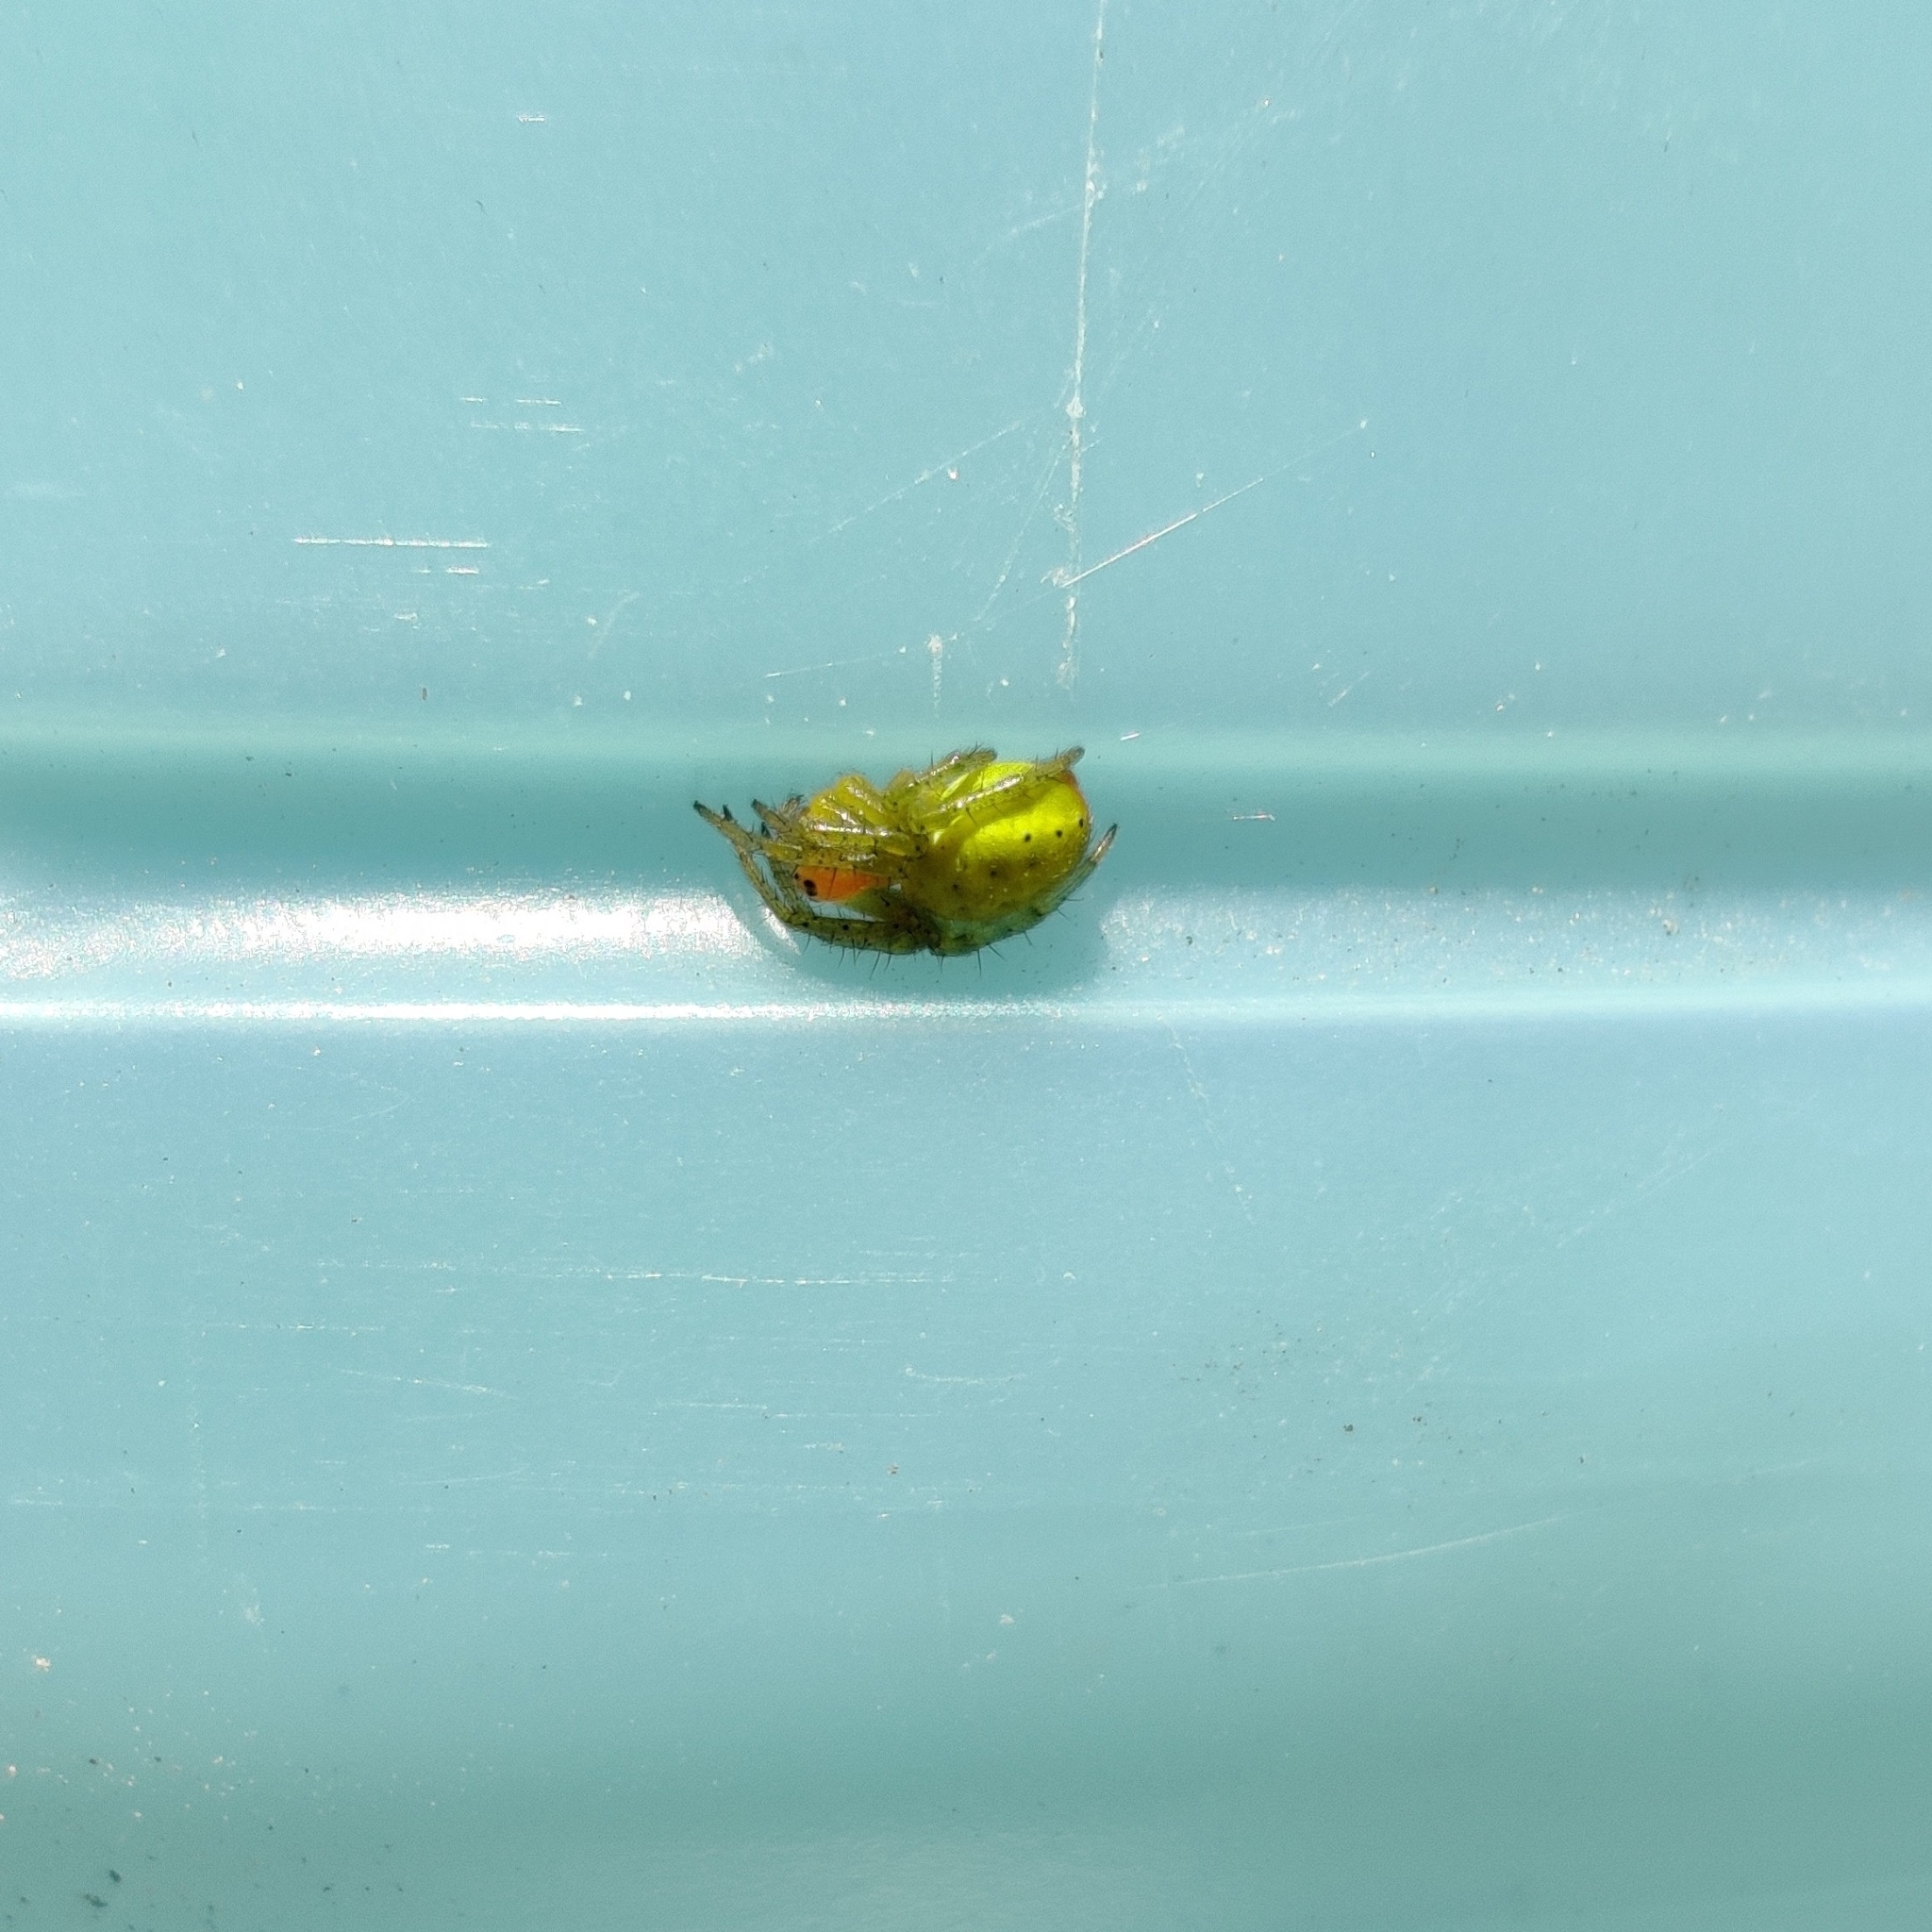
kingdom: Animalia
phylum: Arthropoda
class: Arachnida
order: Araneae
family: Araneidae
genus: Araniella
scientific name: Araniella
